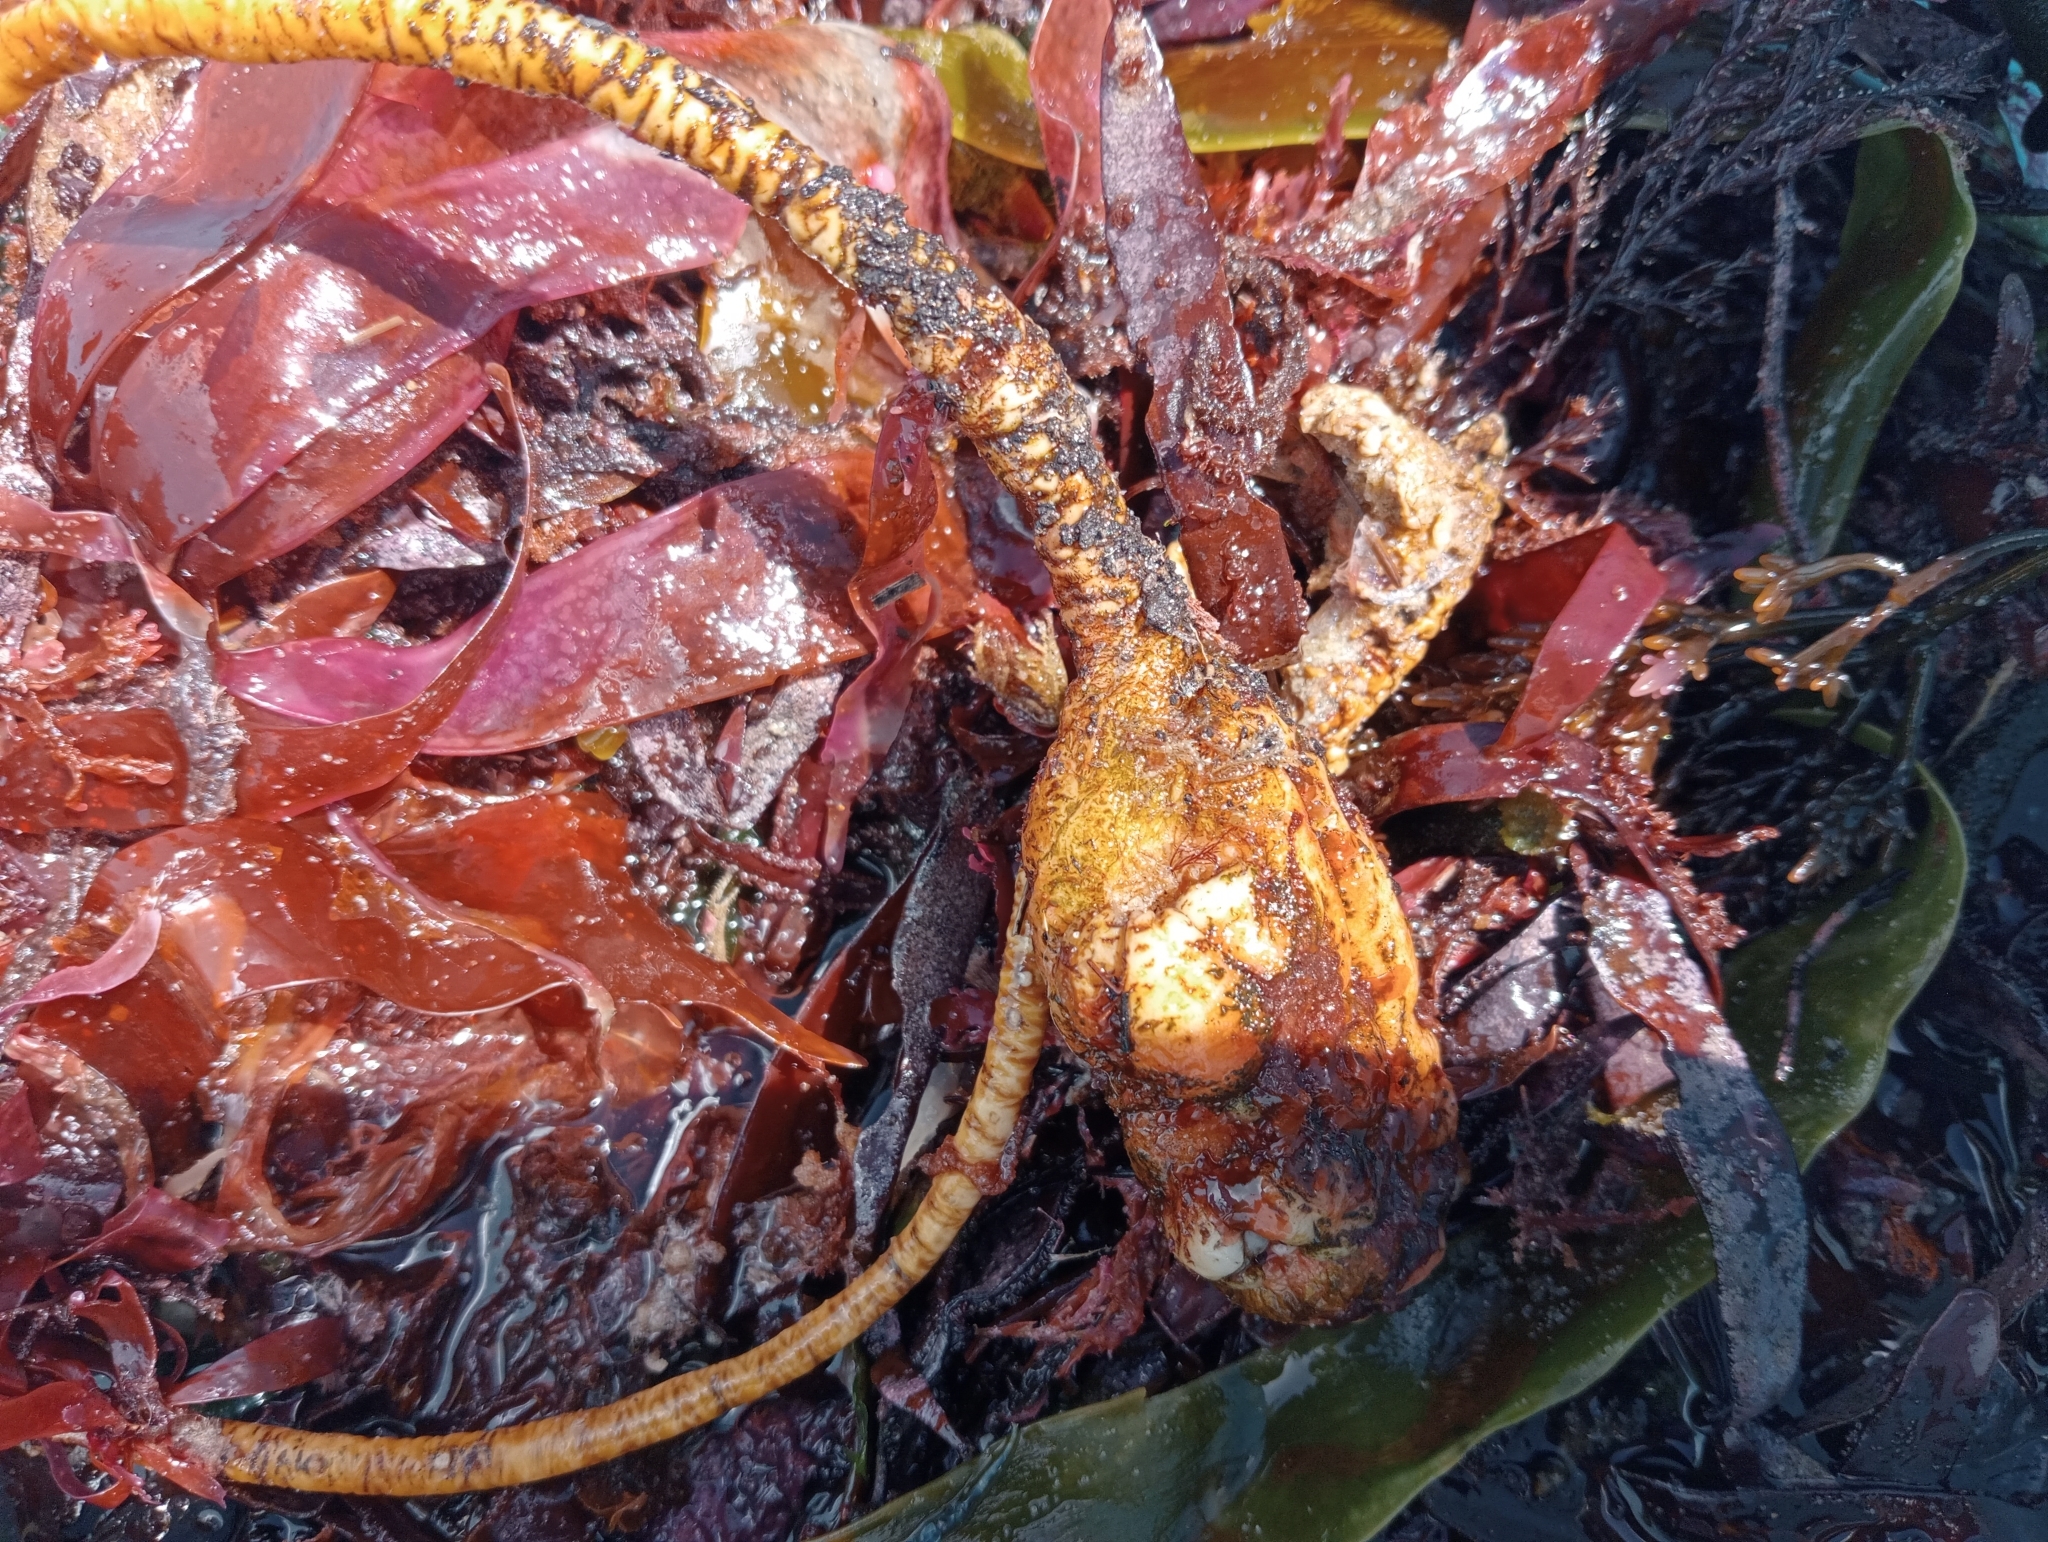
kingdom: Animalia
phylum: Chordata
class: Ascidiacea
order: Stolidobranchia
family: Pyuridae
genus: Pyura
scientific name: Pyura pachydermatina
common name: Sea tulip
